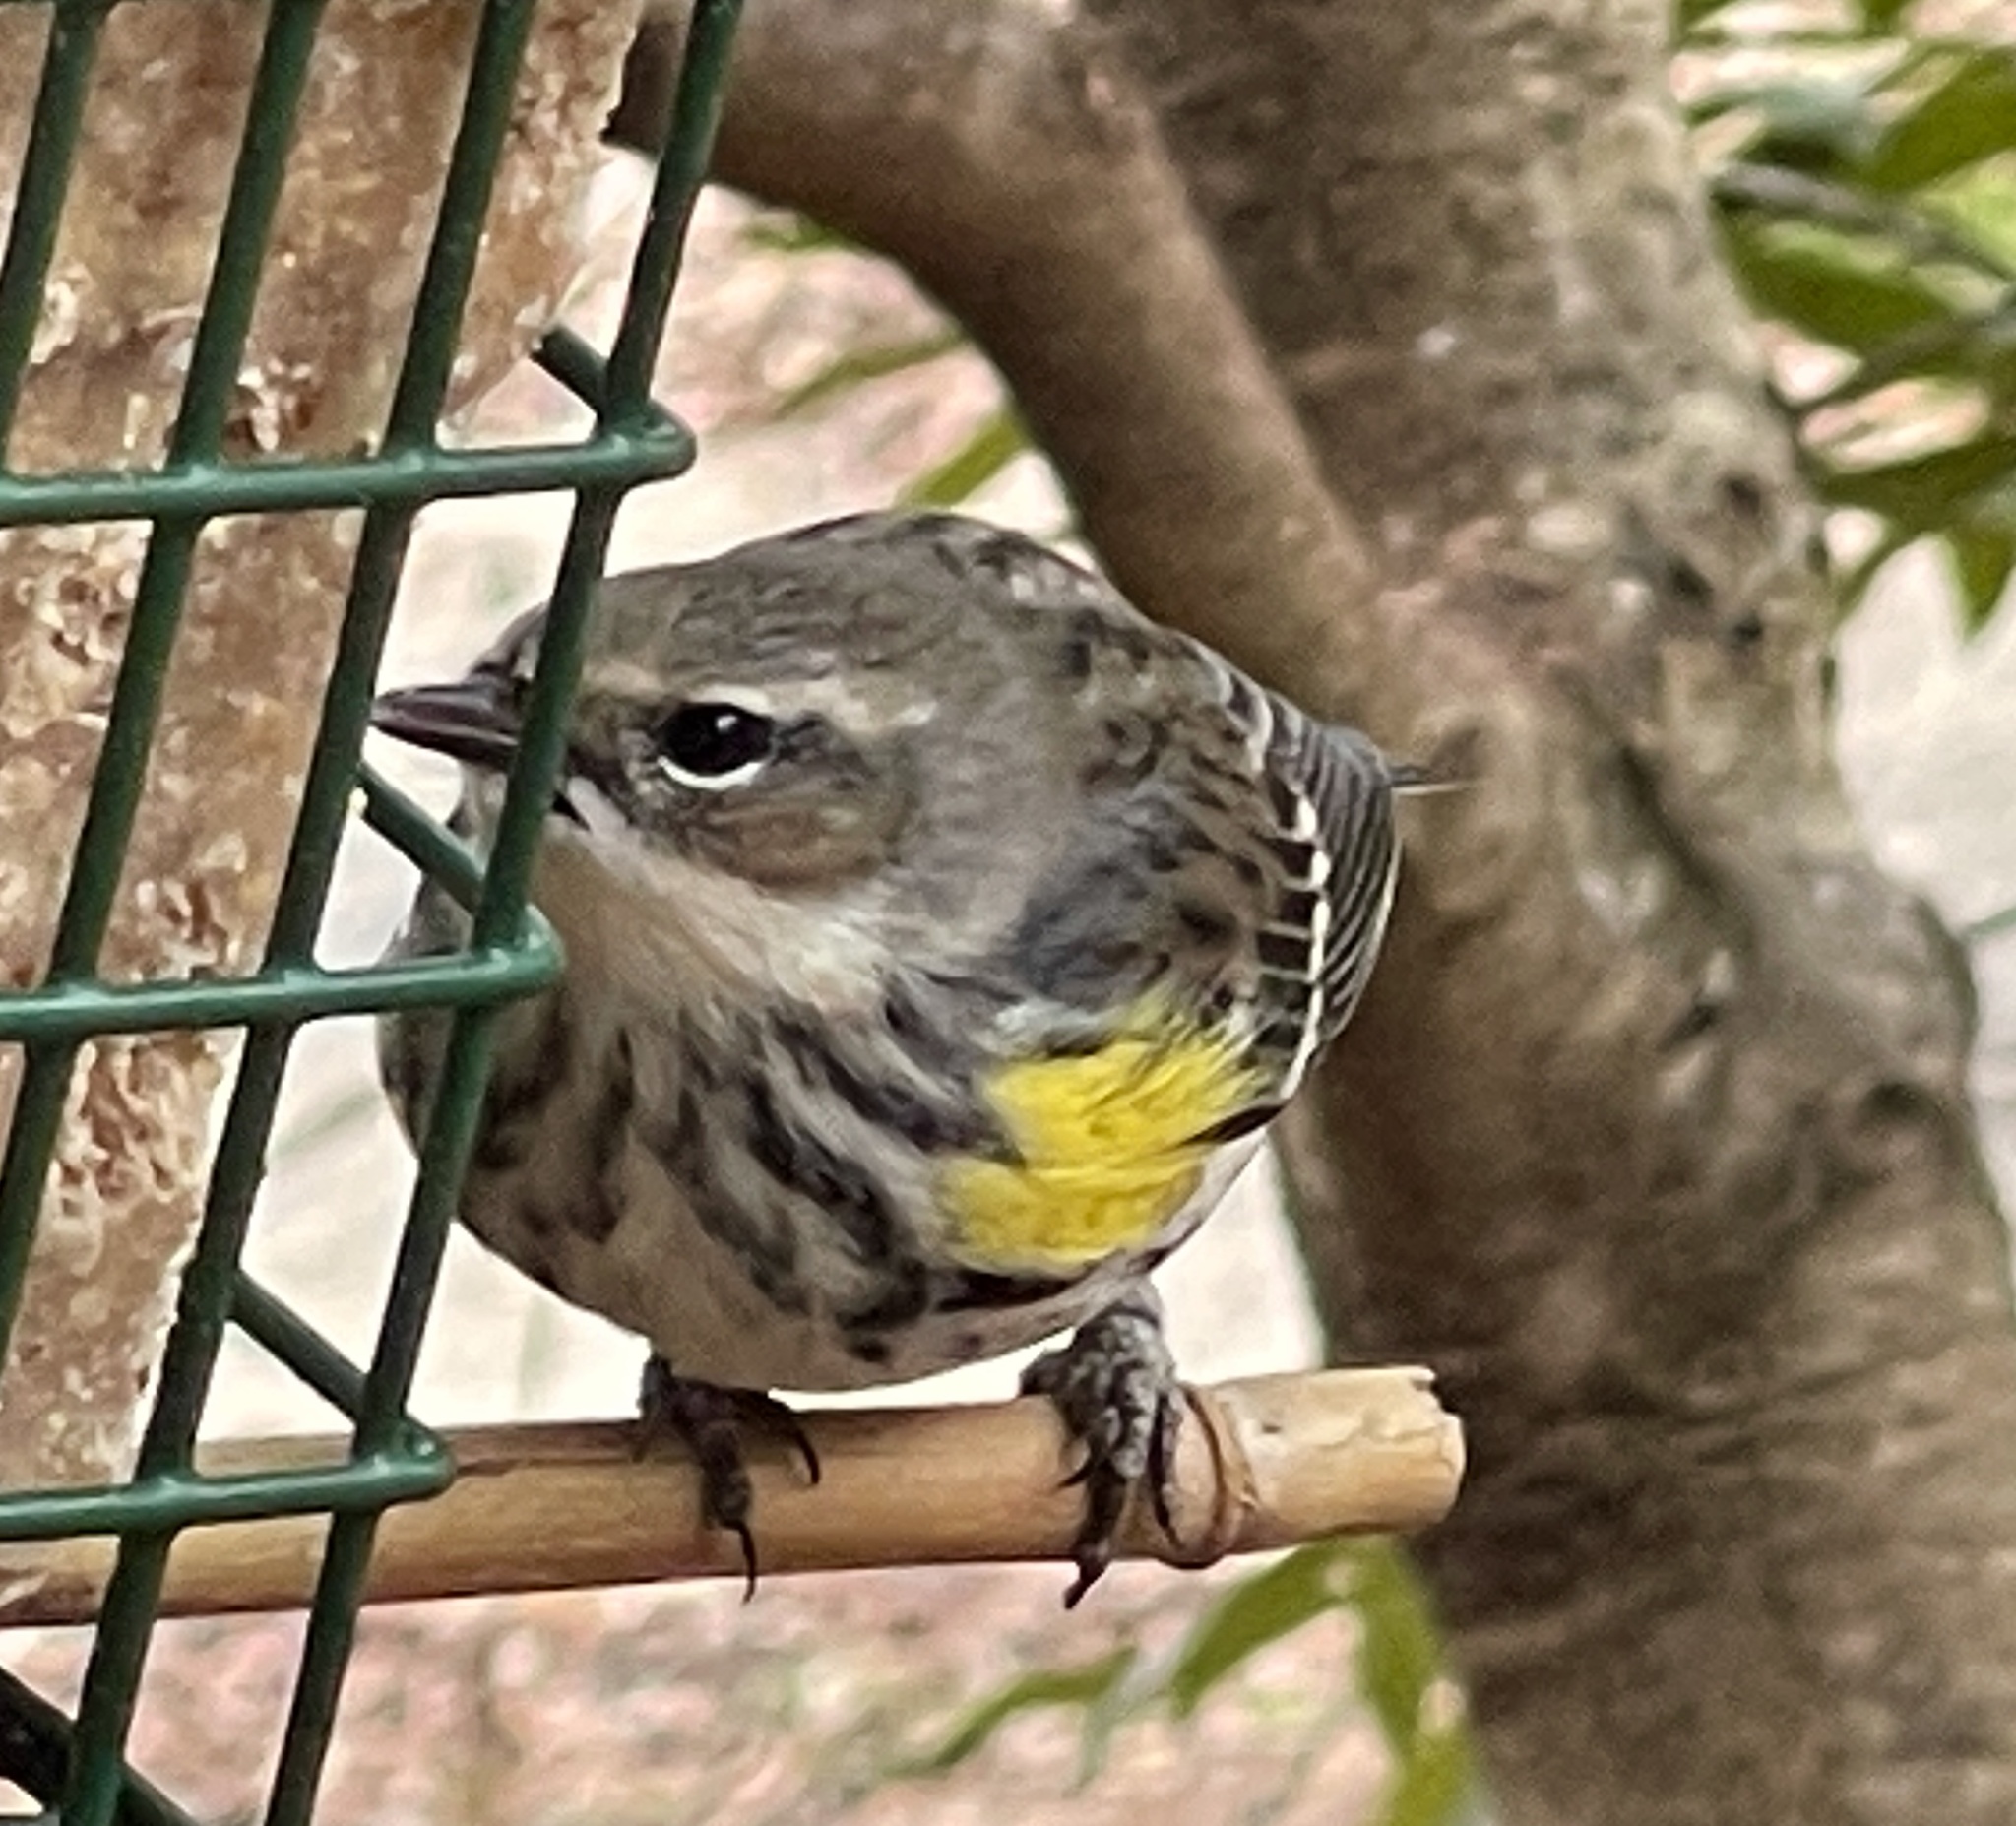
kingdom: Animalia
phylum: Chordata
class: Aves
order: Passeriformes
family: Parulidae
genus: Setophaga
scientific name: Setophaga coronata
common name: Myrtle warbler
